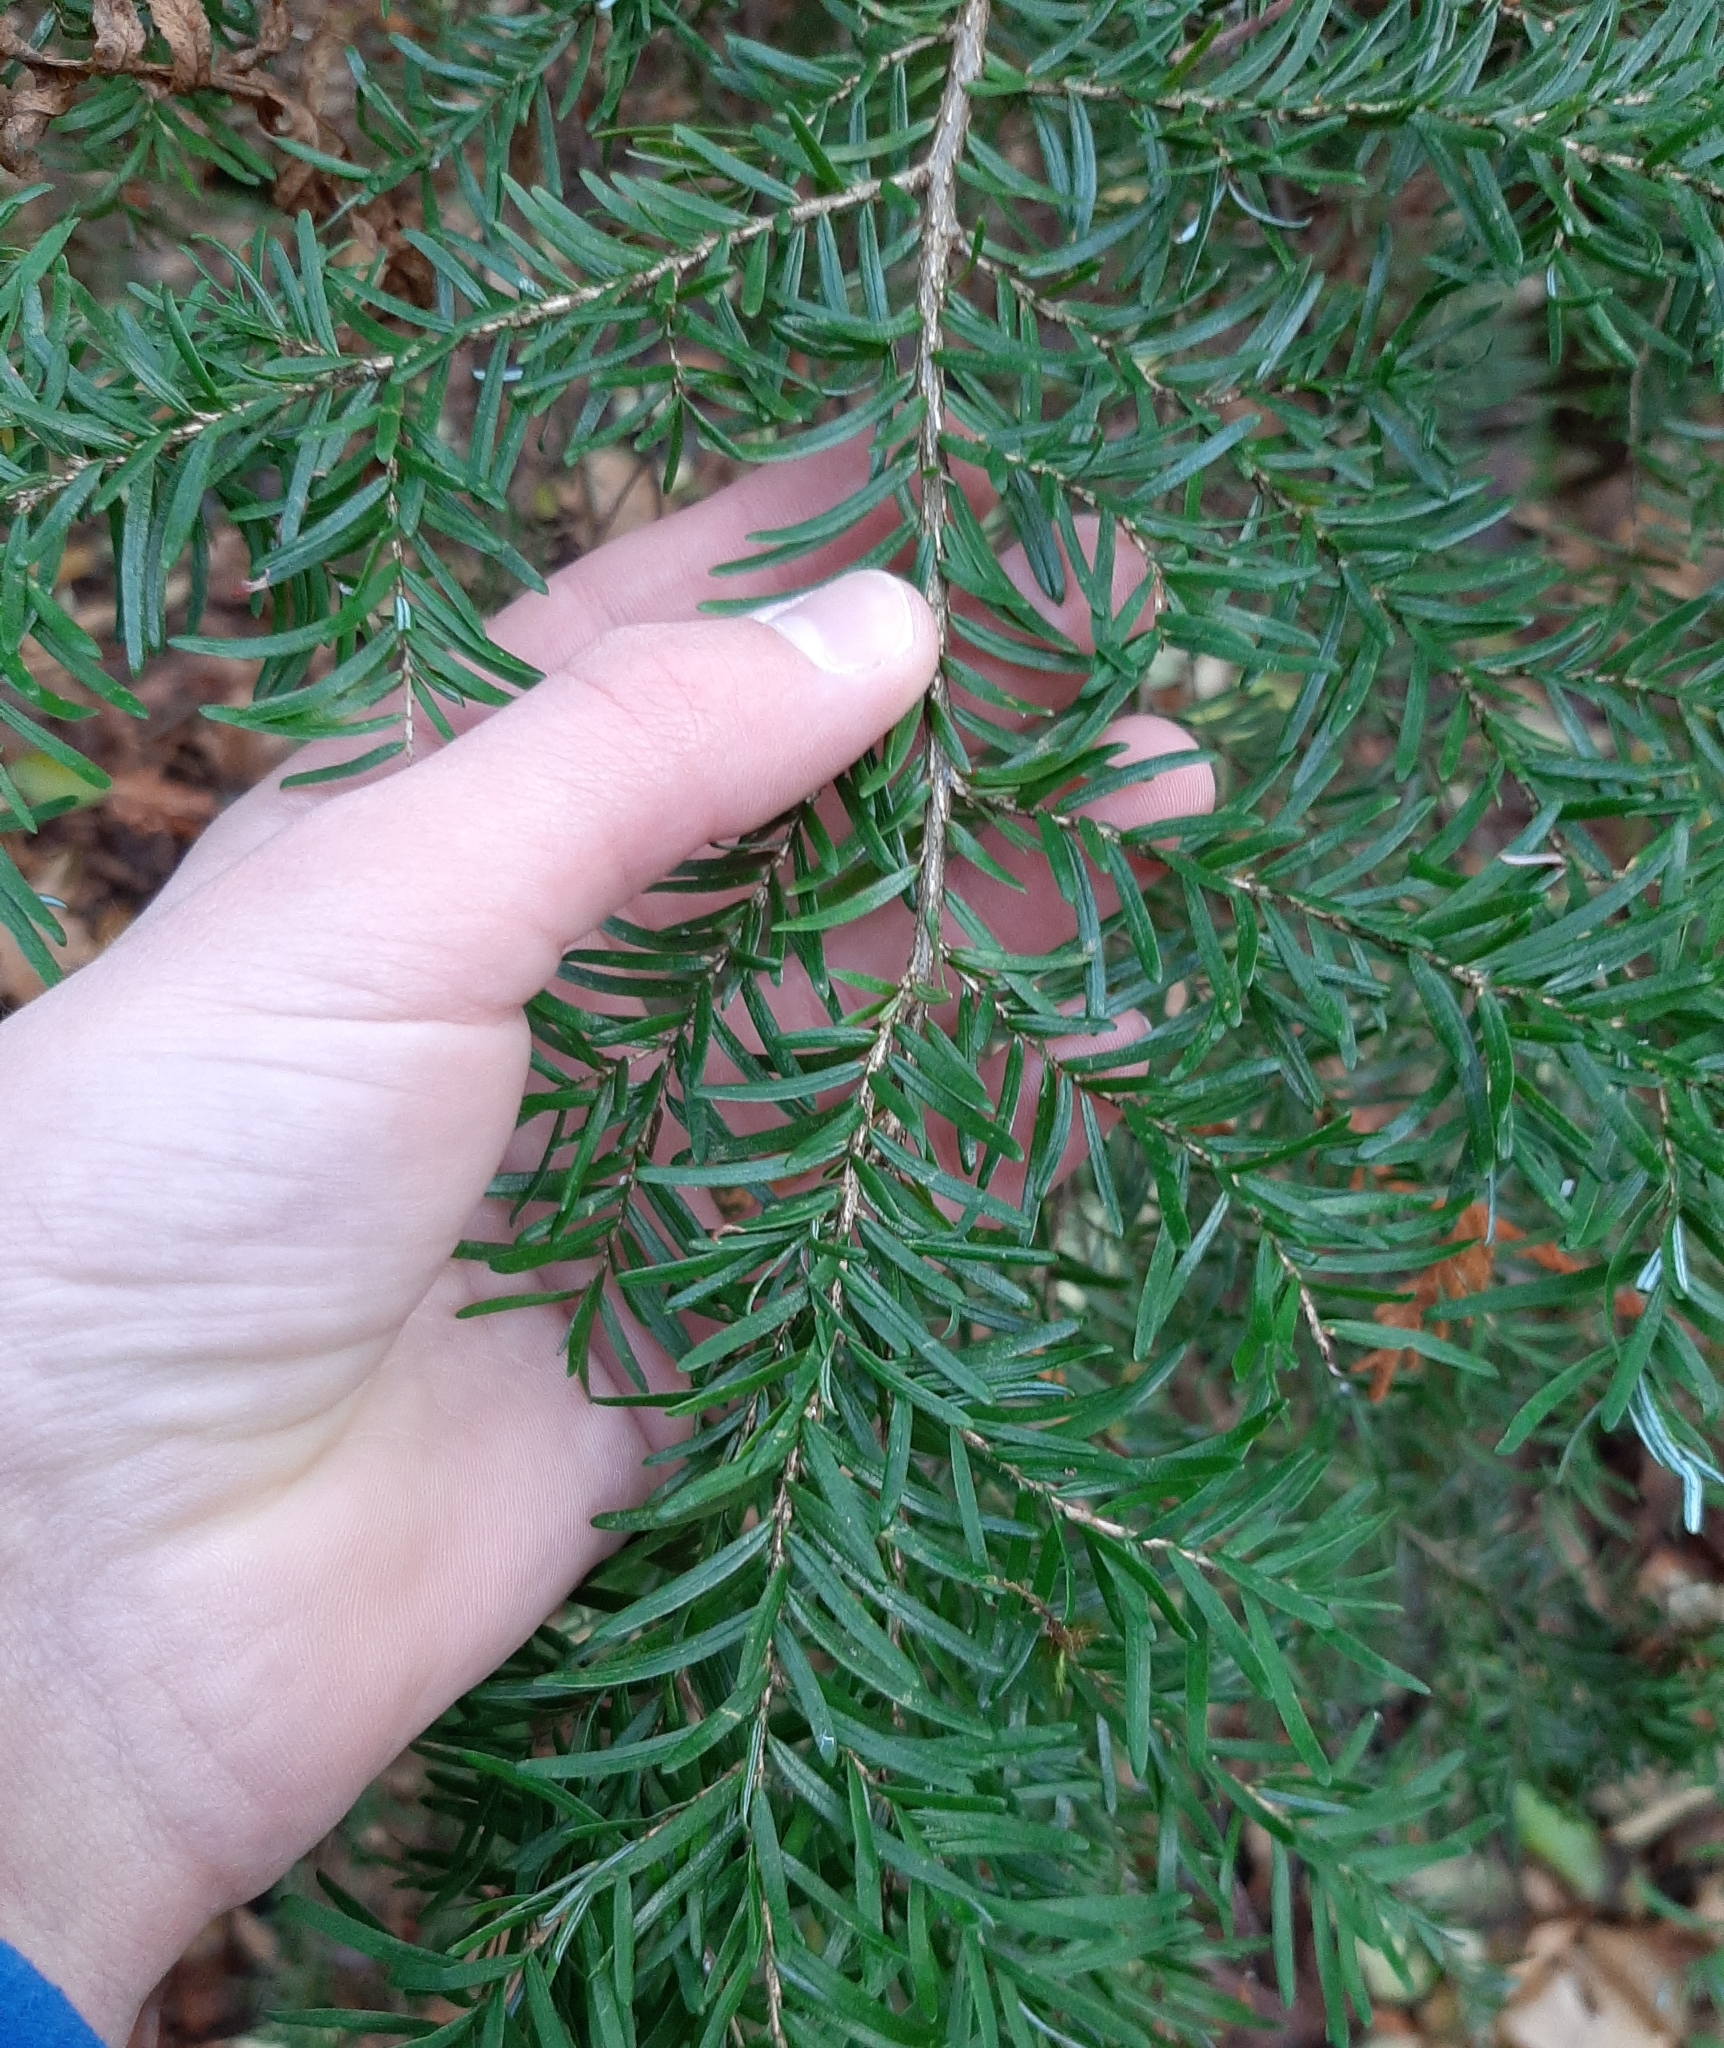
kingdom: Plantae
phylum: Tracheophyta
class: Pinopsida
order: Pinales
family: Pinaceae
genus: Tsuga
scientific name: Tsuga heterophylla
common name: Western hemlock
